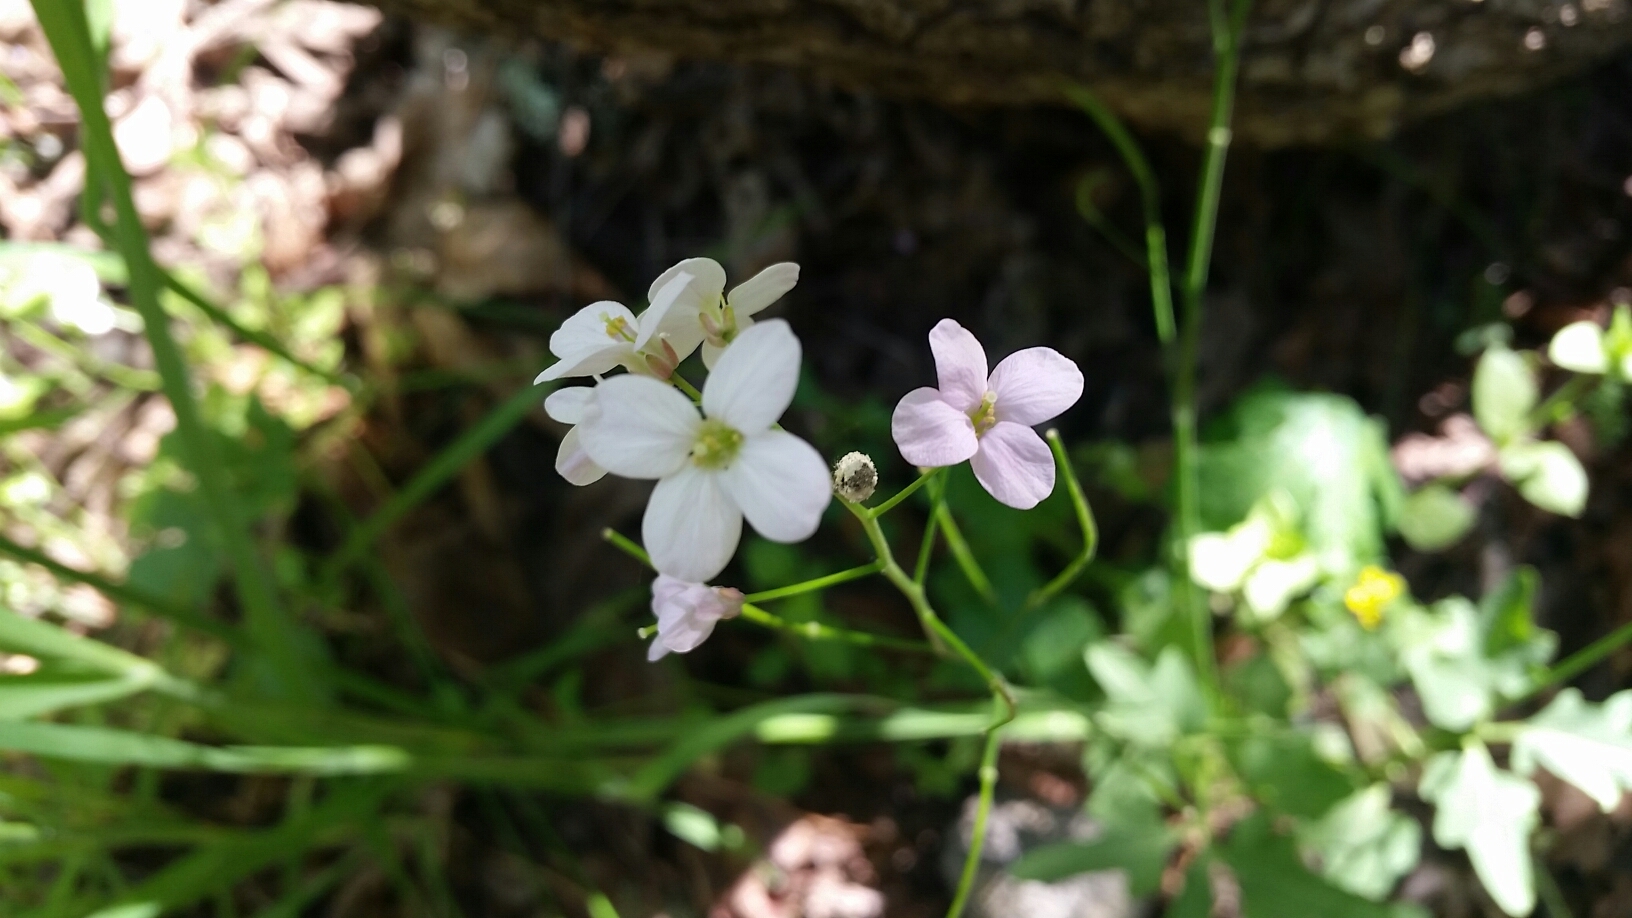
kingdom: Plantae
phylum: Tracheophyta
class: Magnoliopsida
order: Brassicales
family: Brassicaceae
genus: Cardamine
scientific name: Cardamine californica
